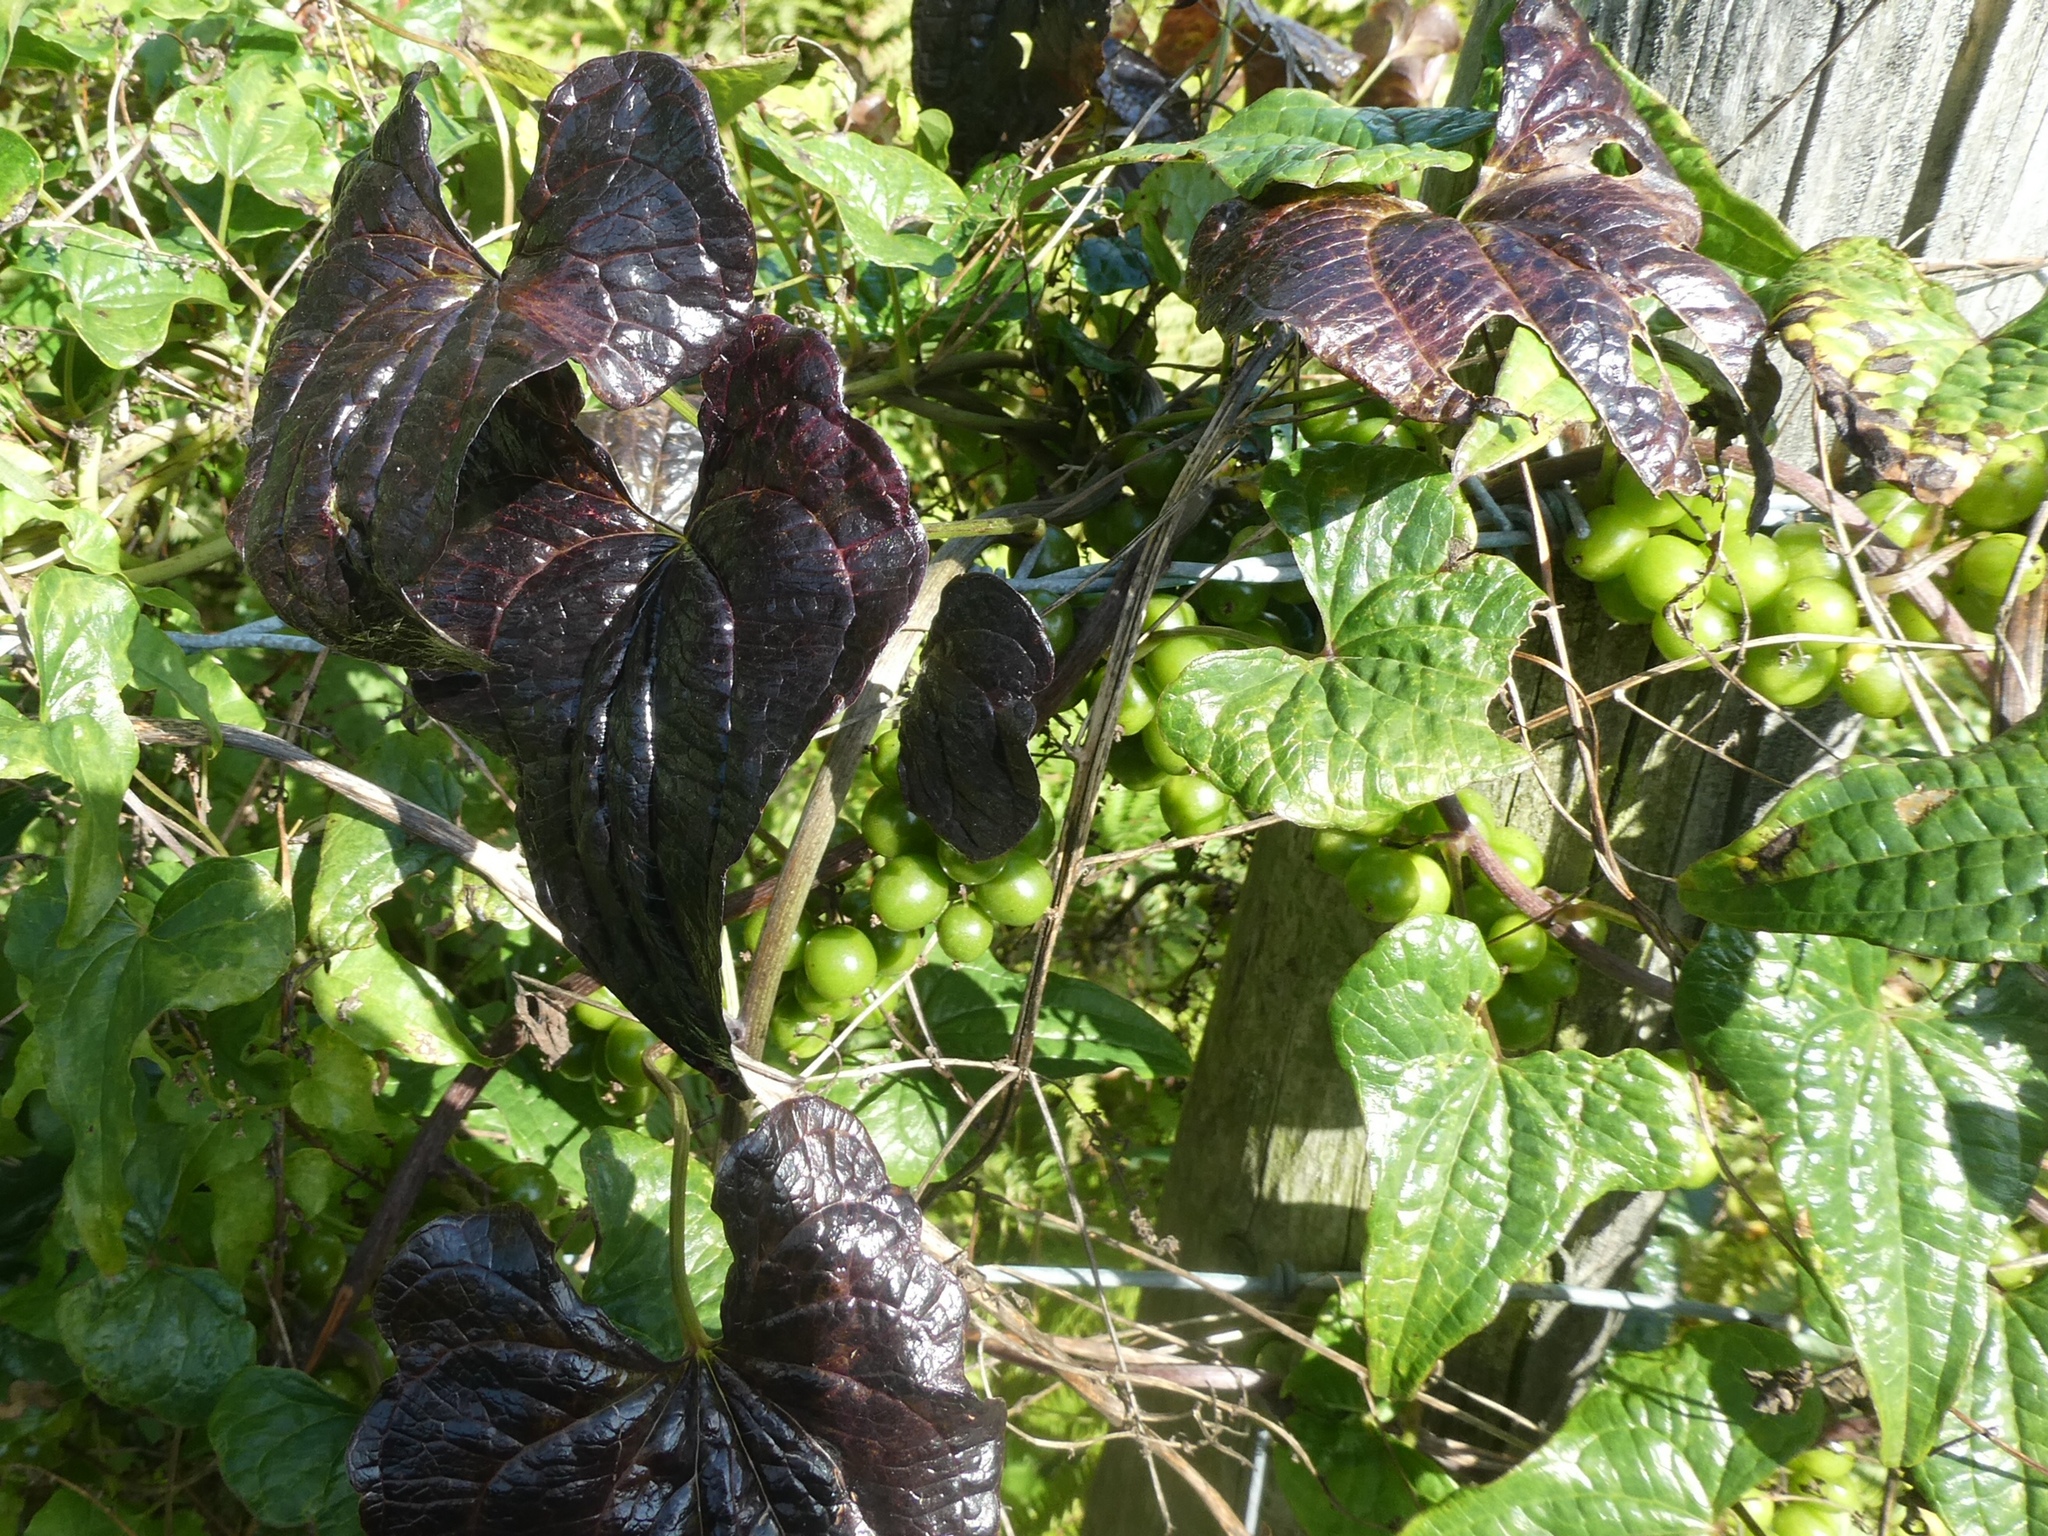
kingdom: Plantae
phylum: Tracheophyta
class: Liliopsida
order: Dioscoreales
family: Dioscoreaceae
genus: Dioscorea
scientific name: Dioscorea communis
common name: Black-bindweed
